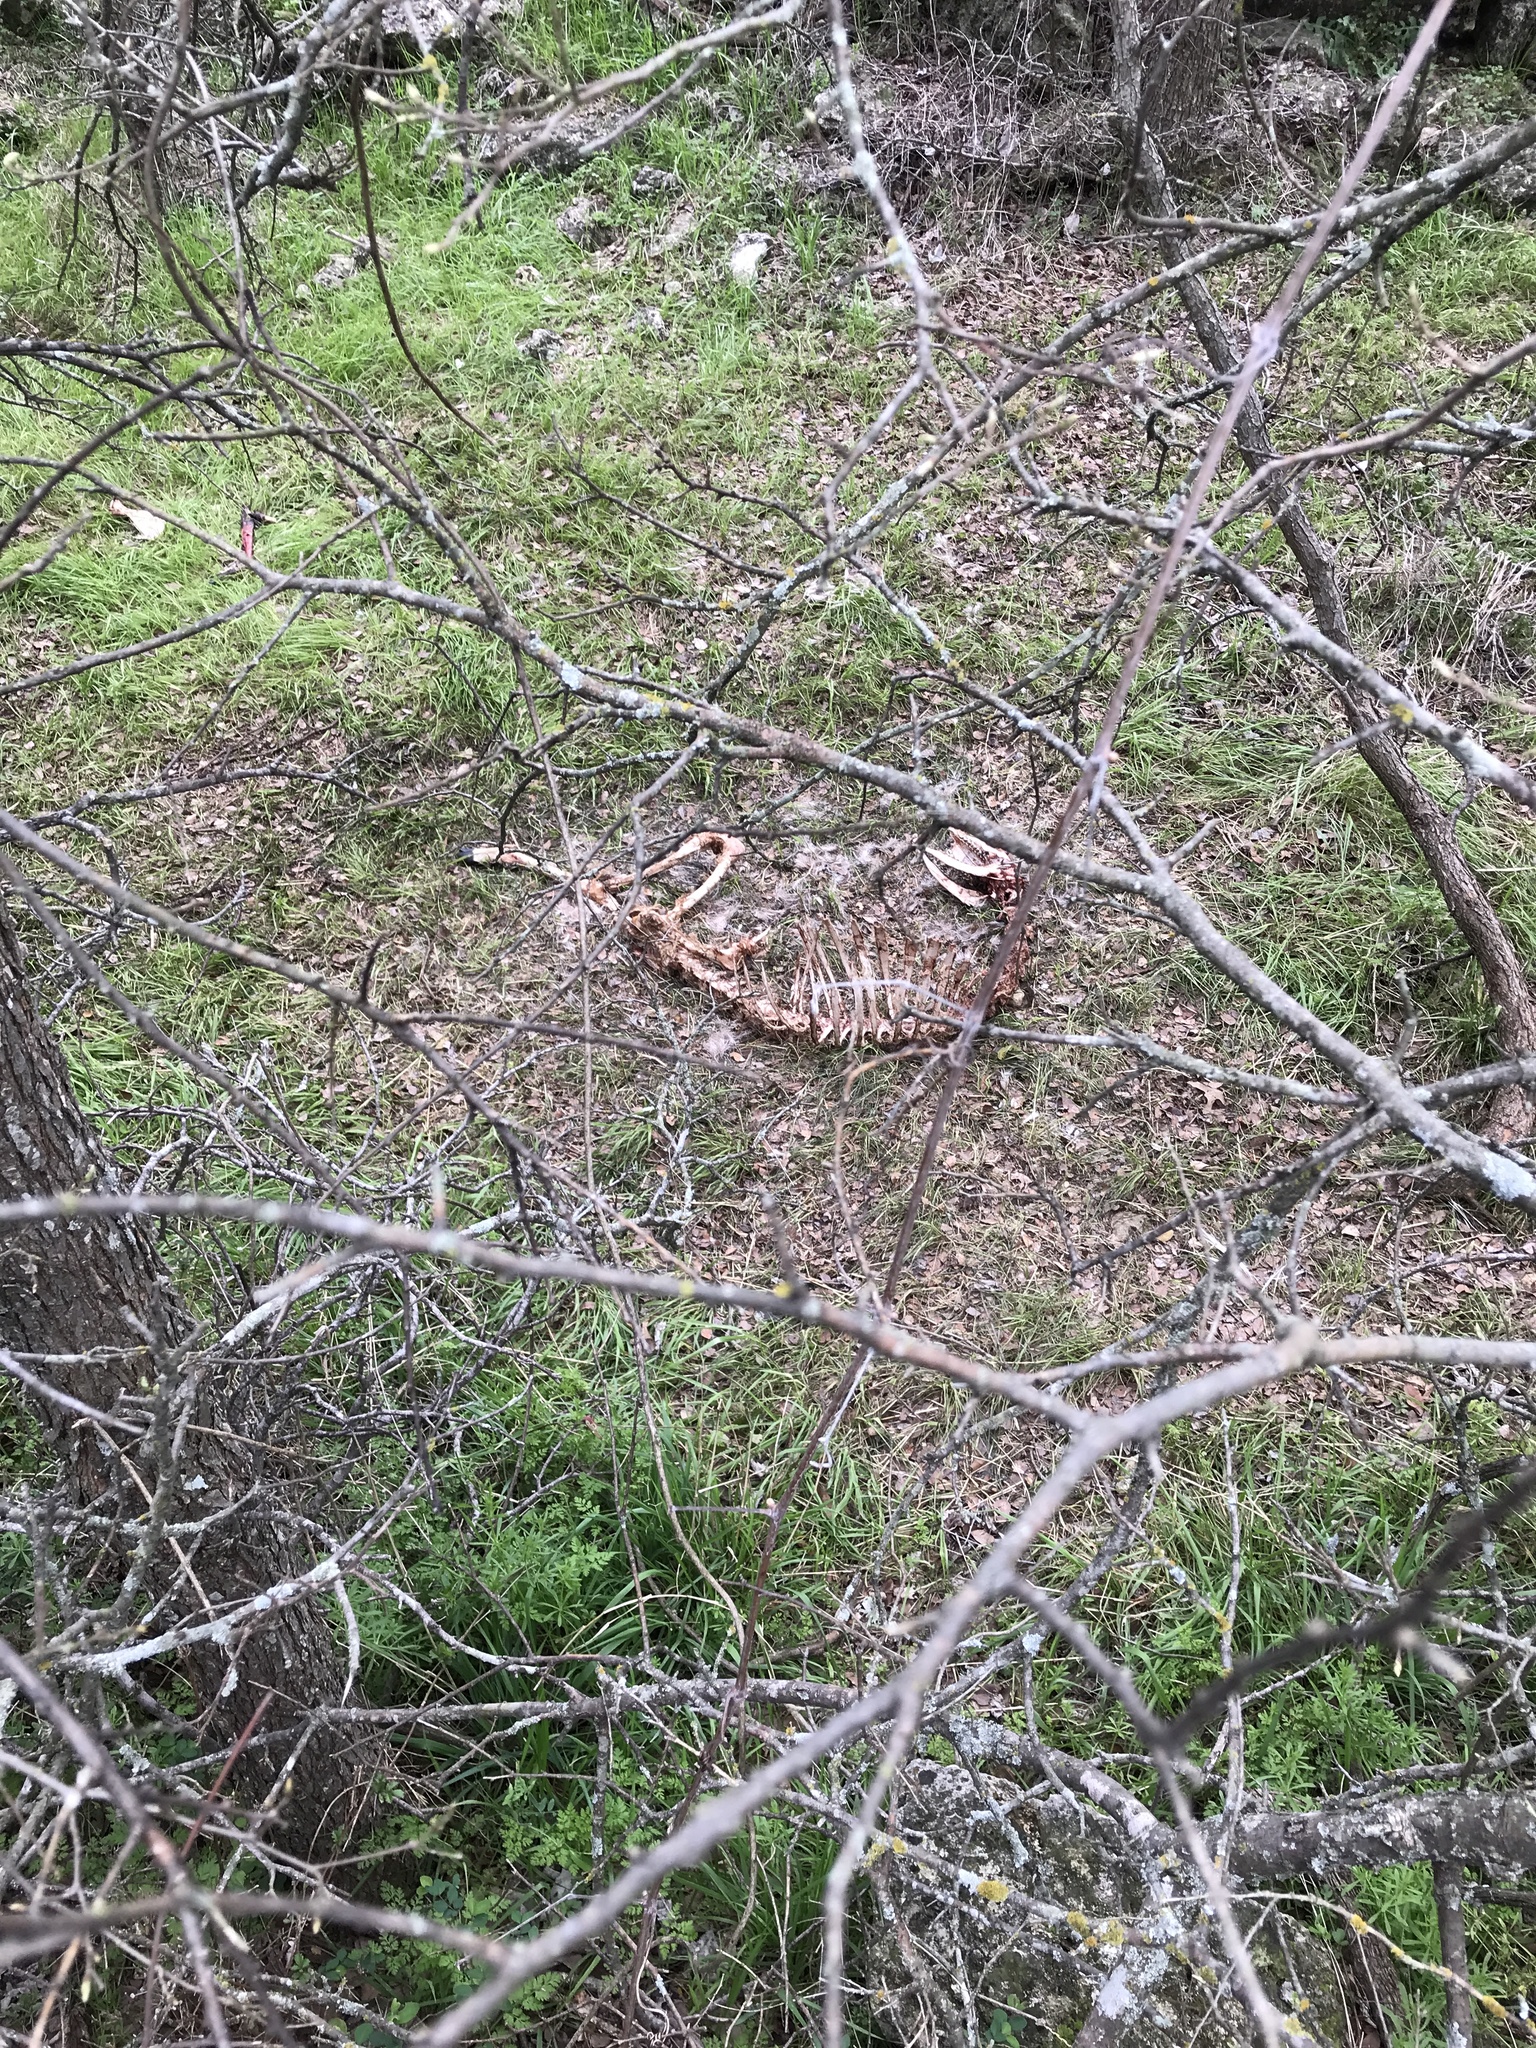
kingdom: Animalia
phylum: Chordata
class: Mammalia
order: Artiodactyla
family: Cervidae
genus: Odocoileus
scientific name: Odocoileus virginianus
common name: White-tailed deer
